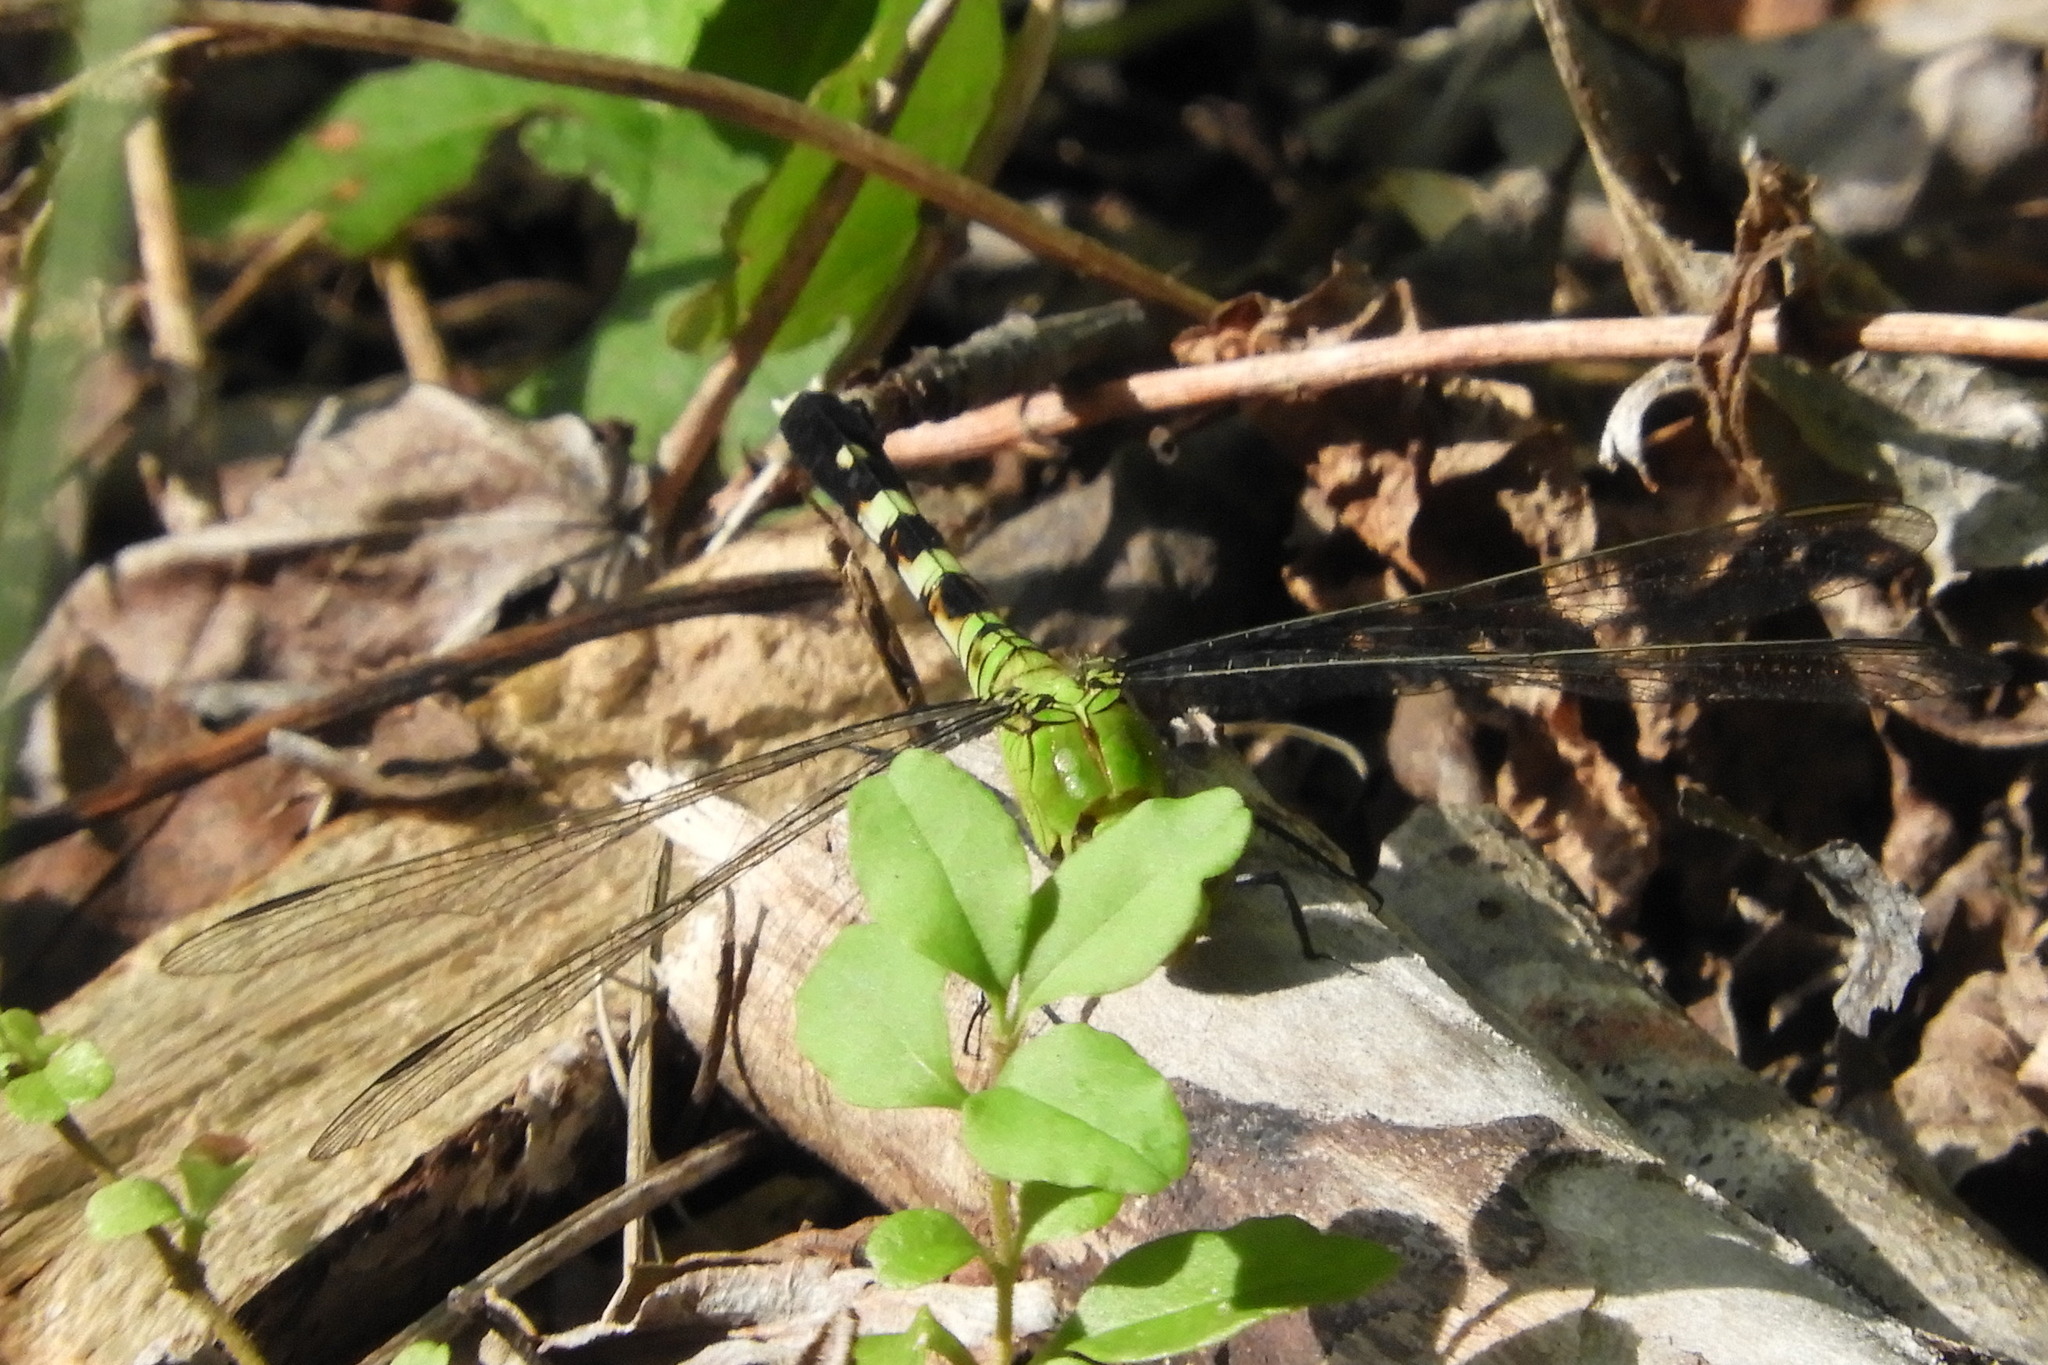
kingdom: Animalia
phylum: Arthropoda
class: Insecta
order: Odonata
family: Libellulidae
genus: Erythemis
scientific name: Erythemis simplicicollis
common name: Eastern pondhawk
